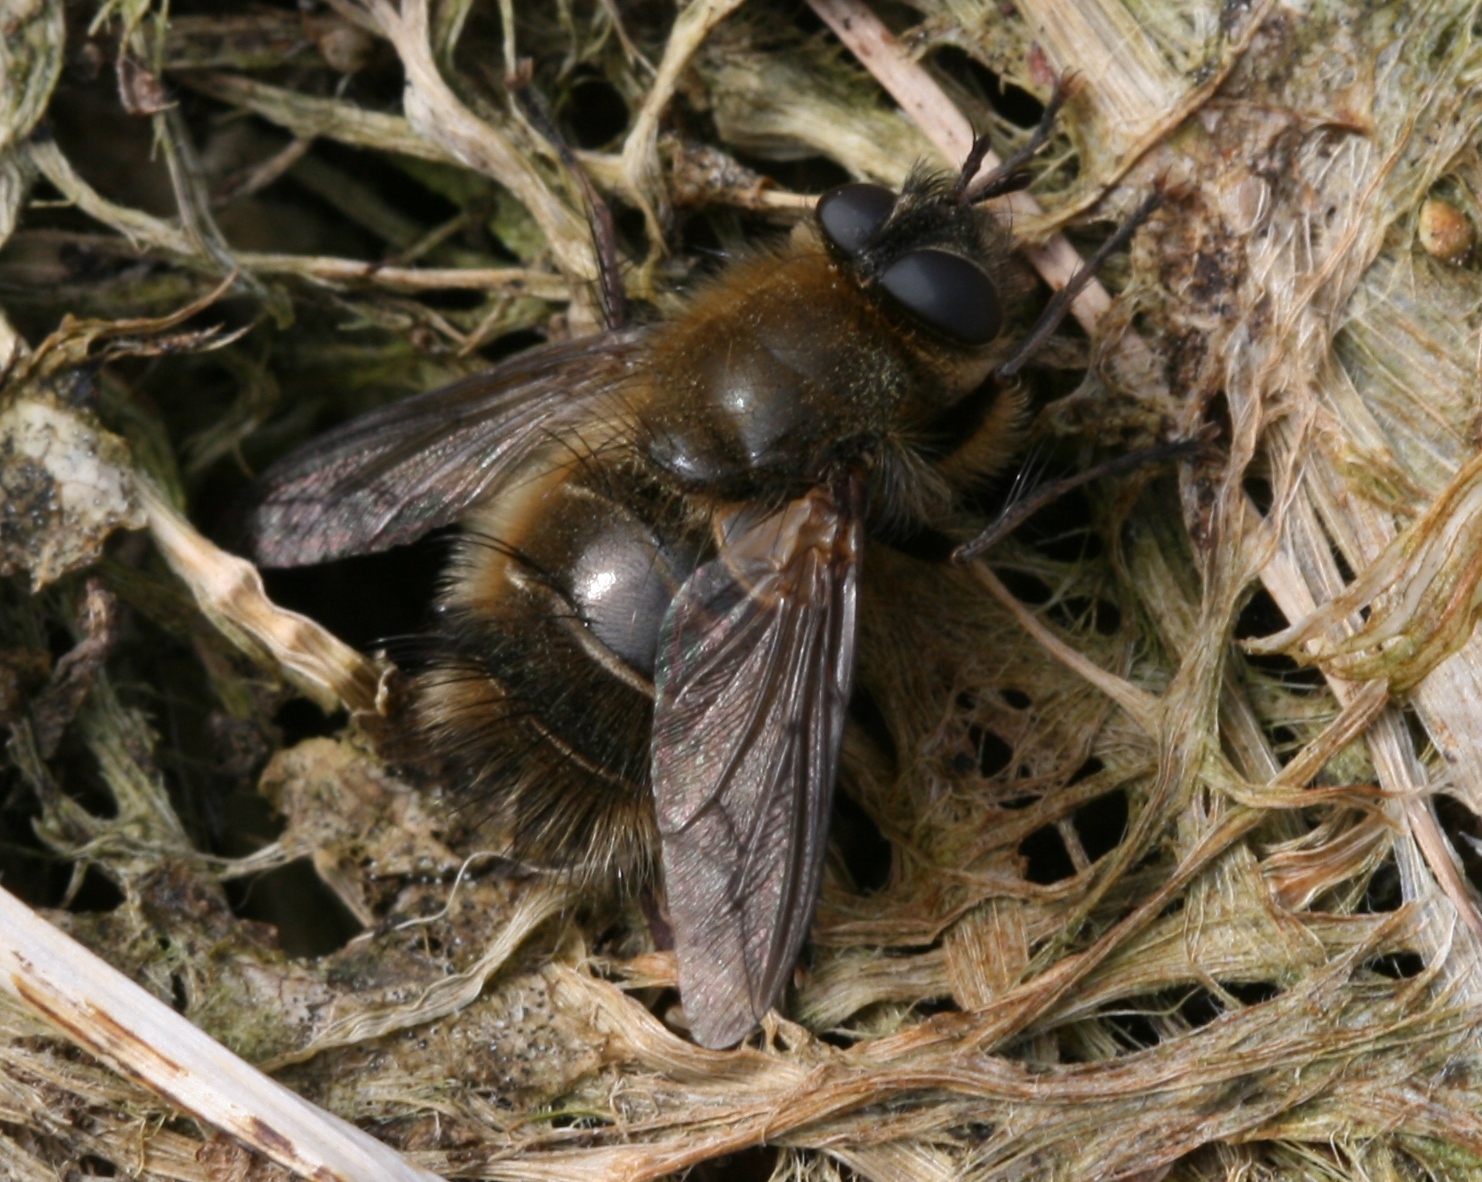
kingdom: Animalia
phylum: Arthropoda
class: Insecta
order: Diptera
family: Tachinidae
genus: Tachina
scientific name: Tachina ursina
